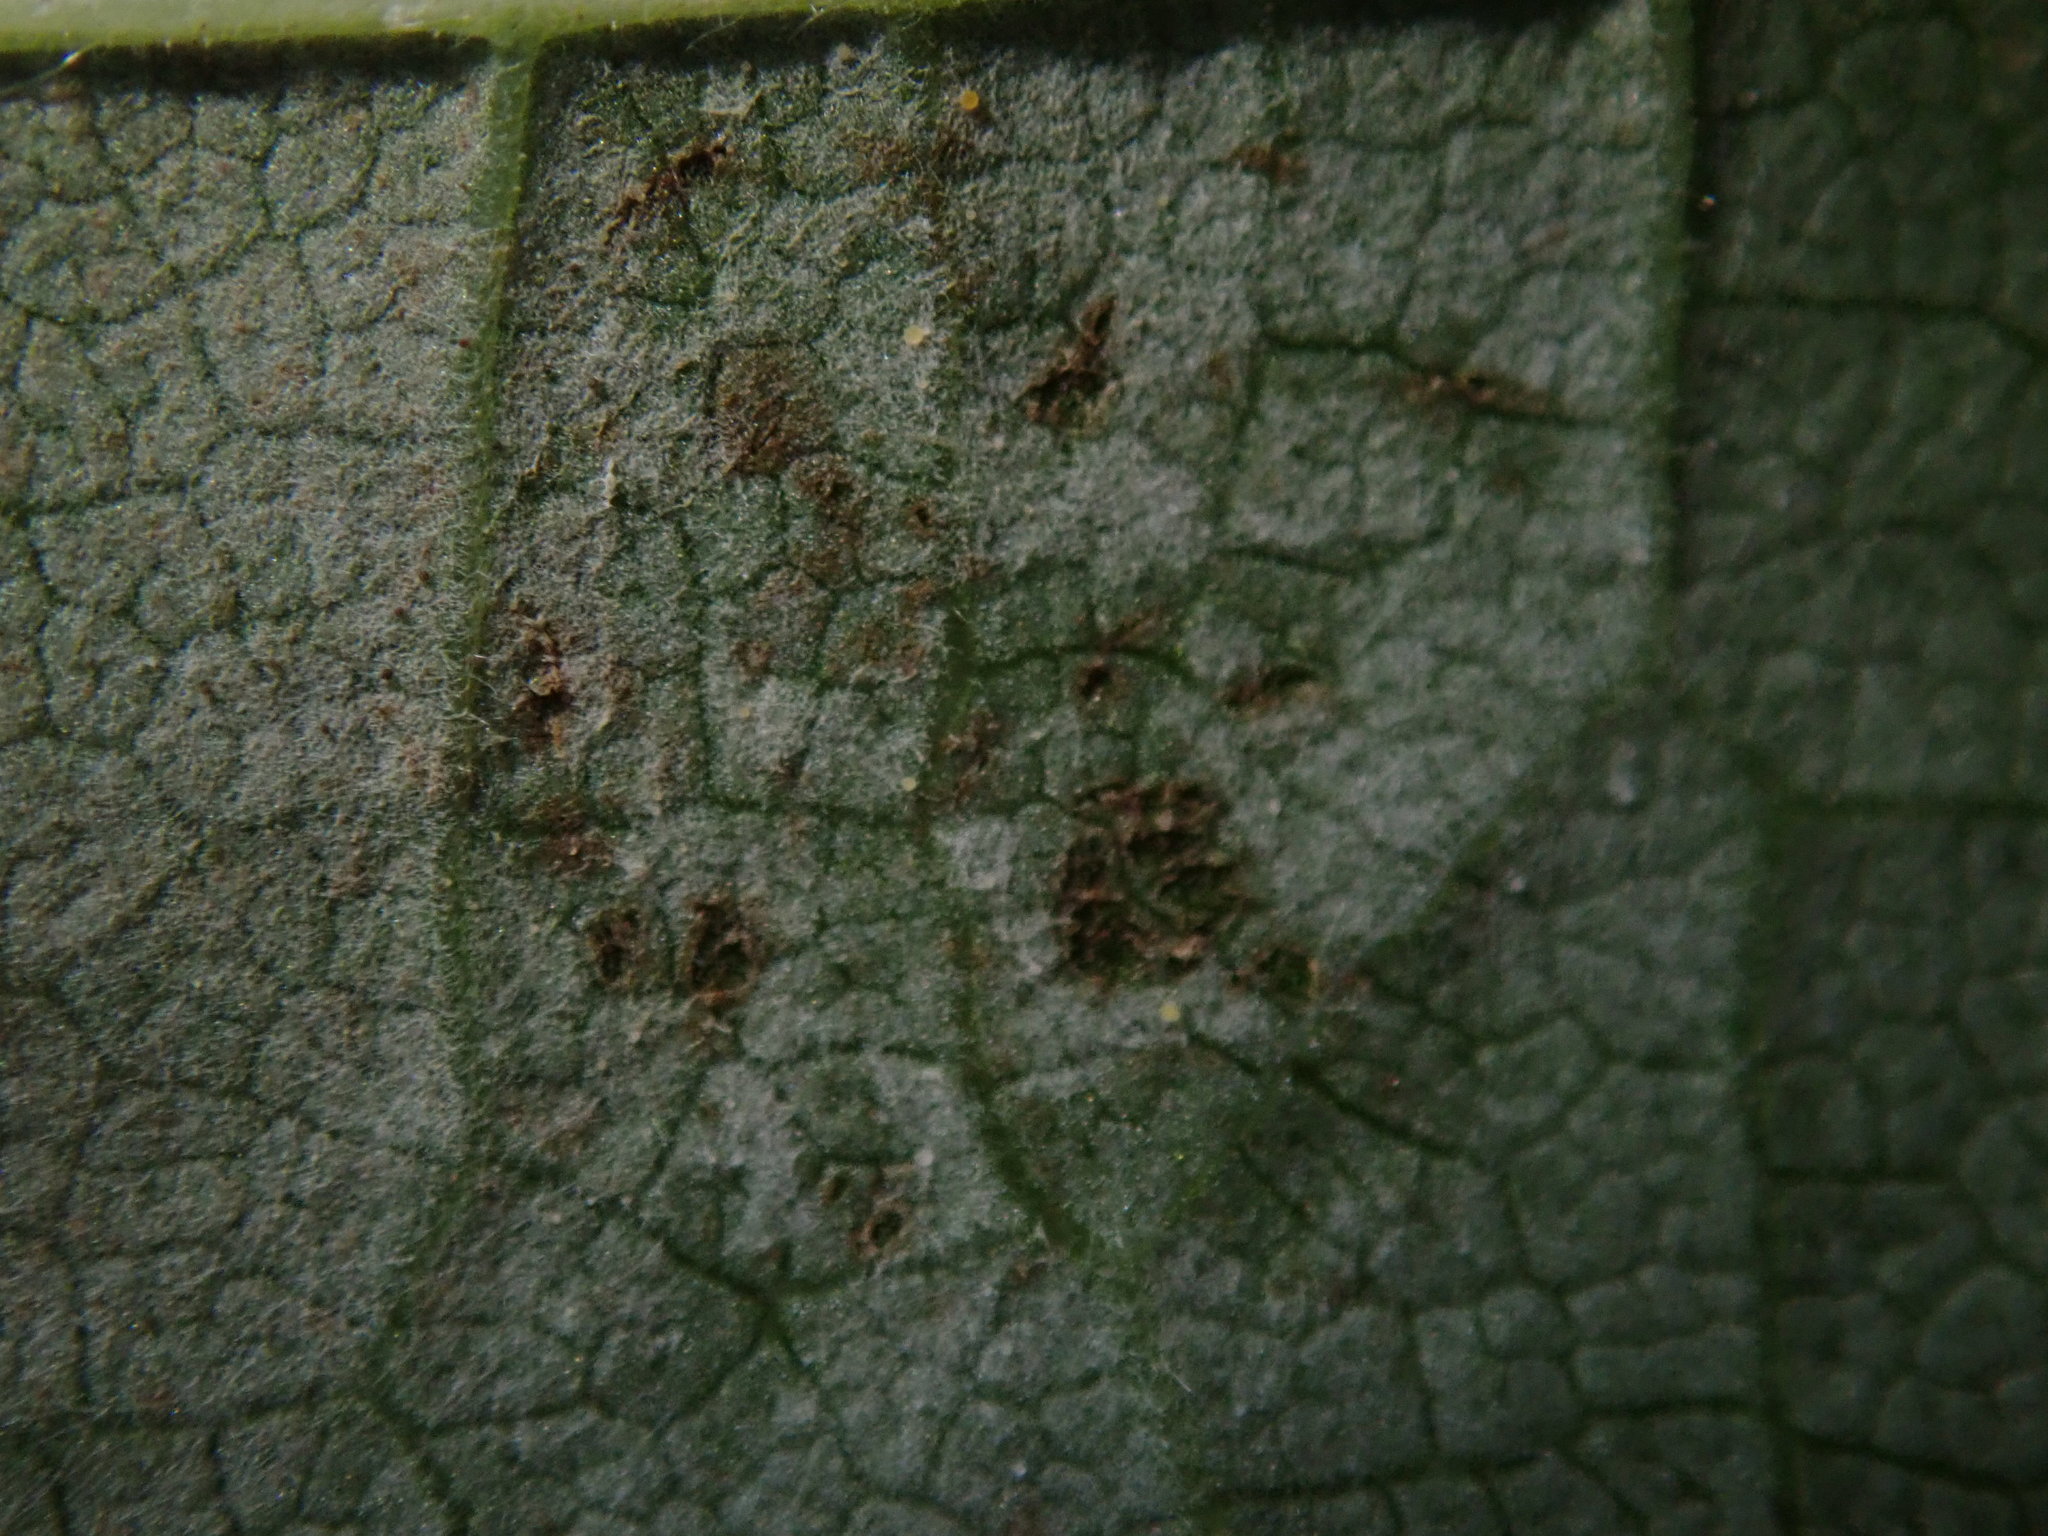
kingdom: Fungi
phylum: Ascomycota
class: Leotiomycetes
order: Helotiales
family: Erysiphaceae
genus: Phyllactinia
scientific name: Phyllactinia guttata
